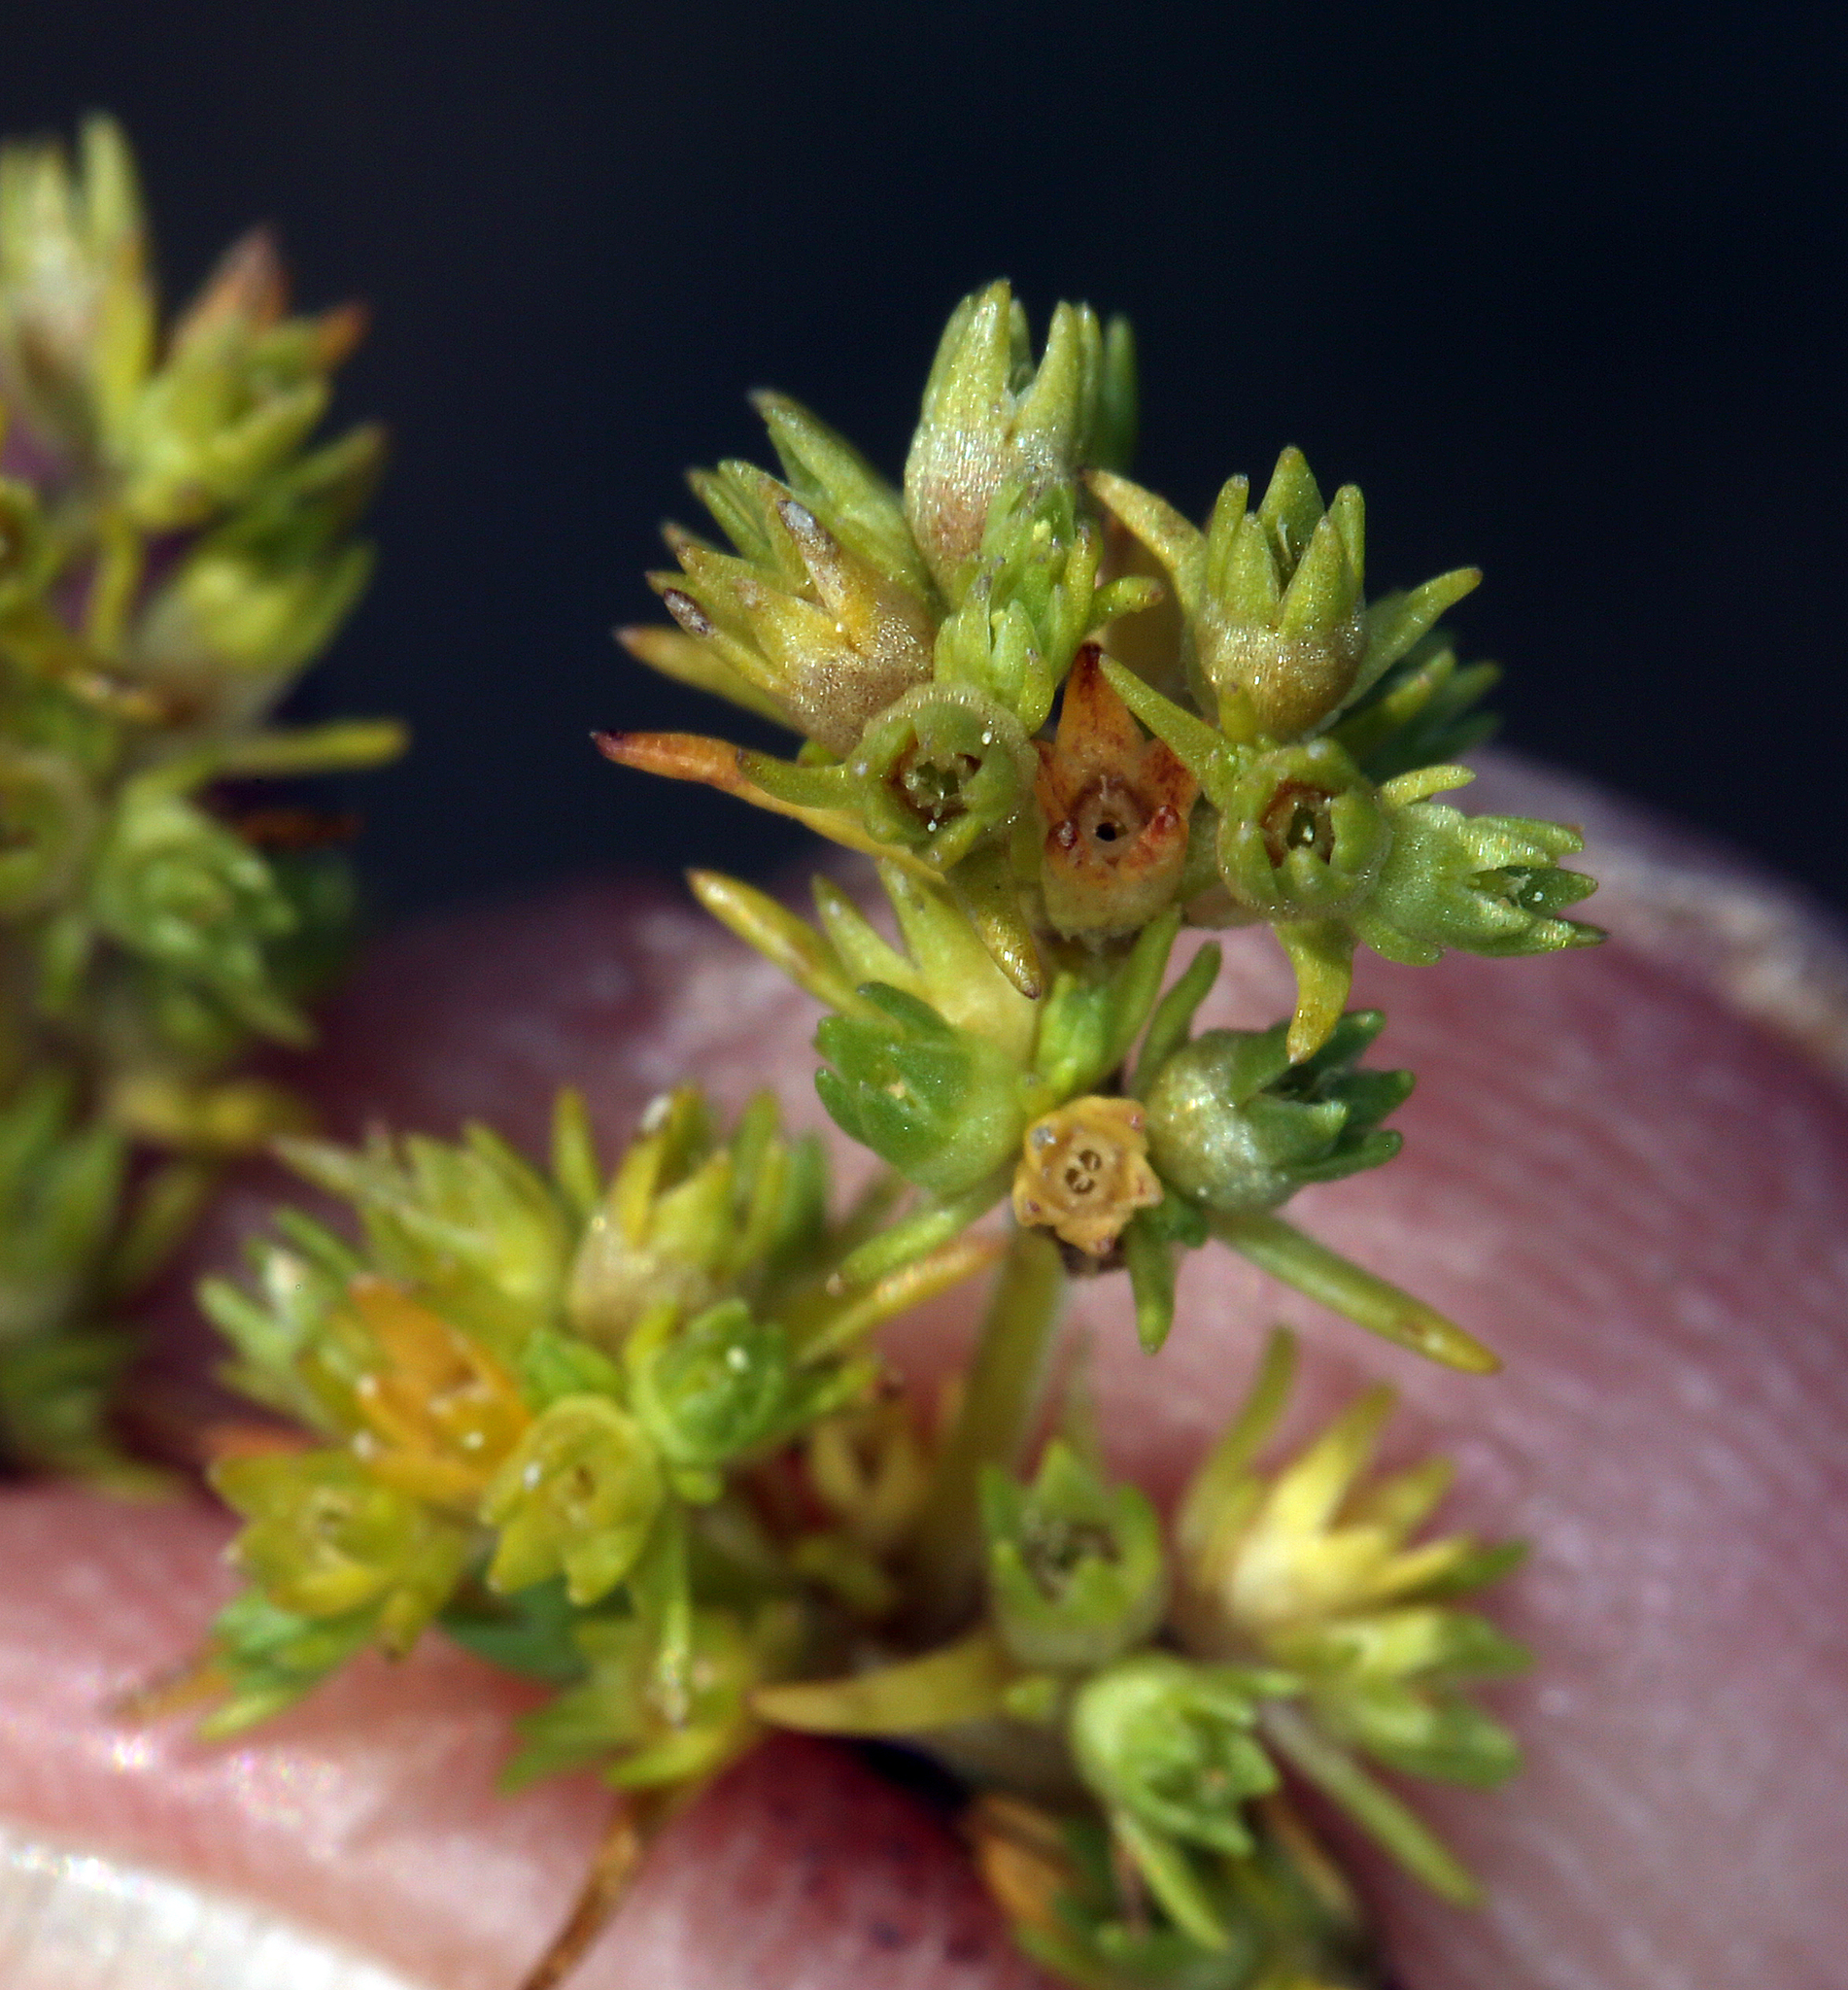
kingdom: Plantae
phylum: Tracheophyta
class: Magnoliopsida
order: Caryophyllales
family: Caryophyllaceae
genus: Scleranthus
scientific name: Scleranthus annuus
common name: Annual knawel
